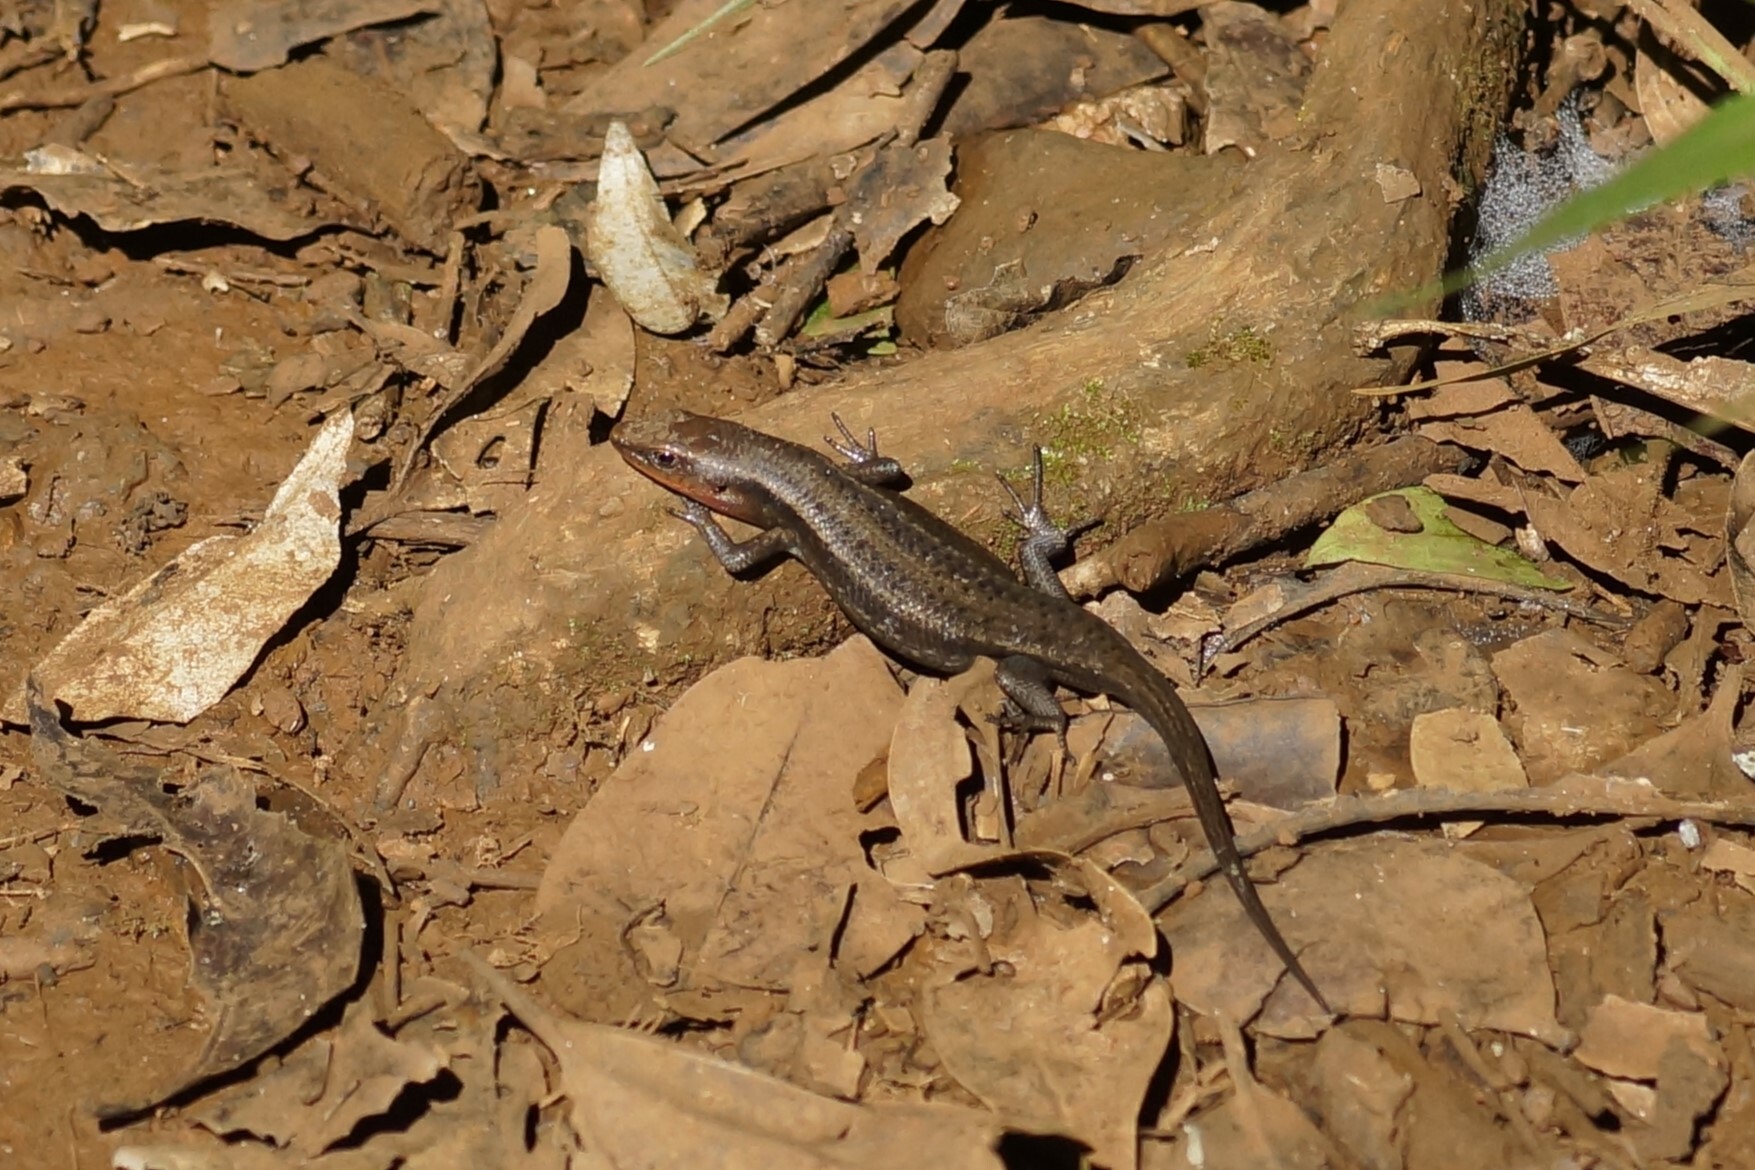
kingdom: Animalia
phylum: Chordata
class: Squamata
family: Scincidae
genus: Carlia
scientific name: Carlia rubrigularis
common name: Northern red-throated skink
